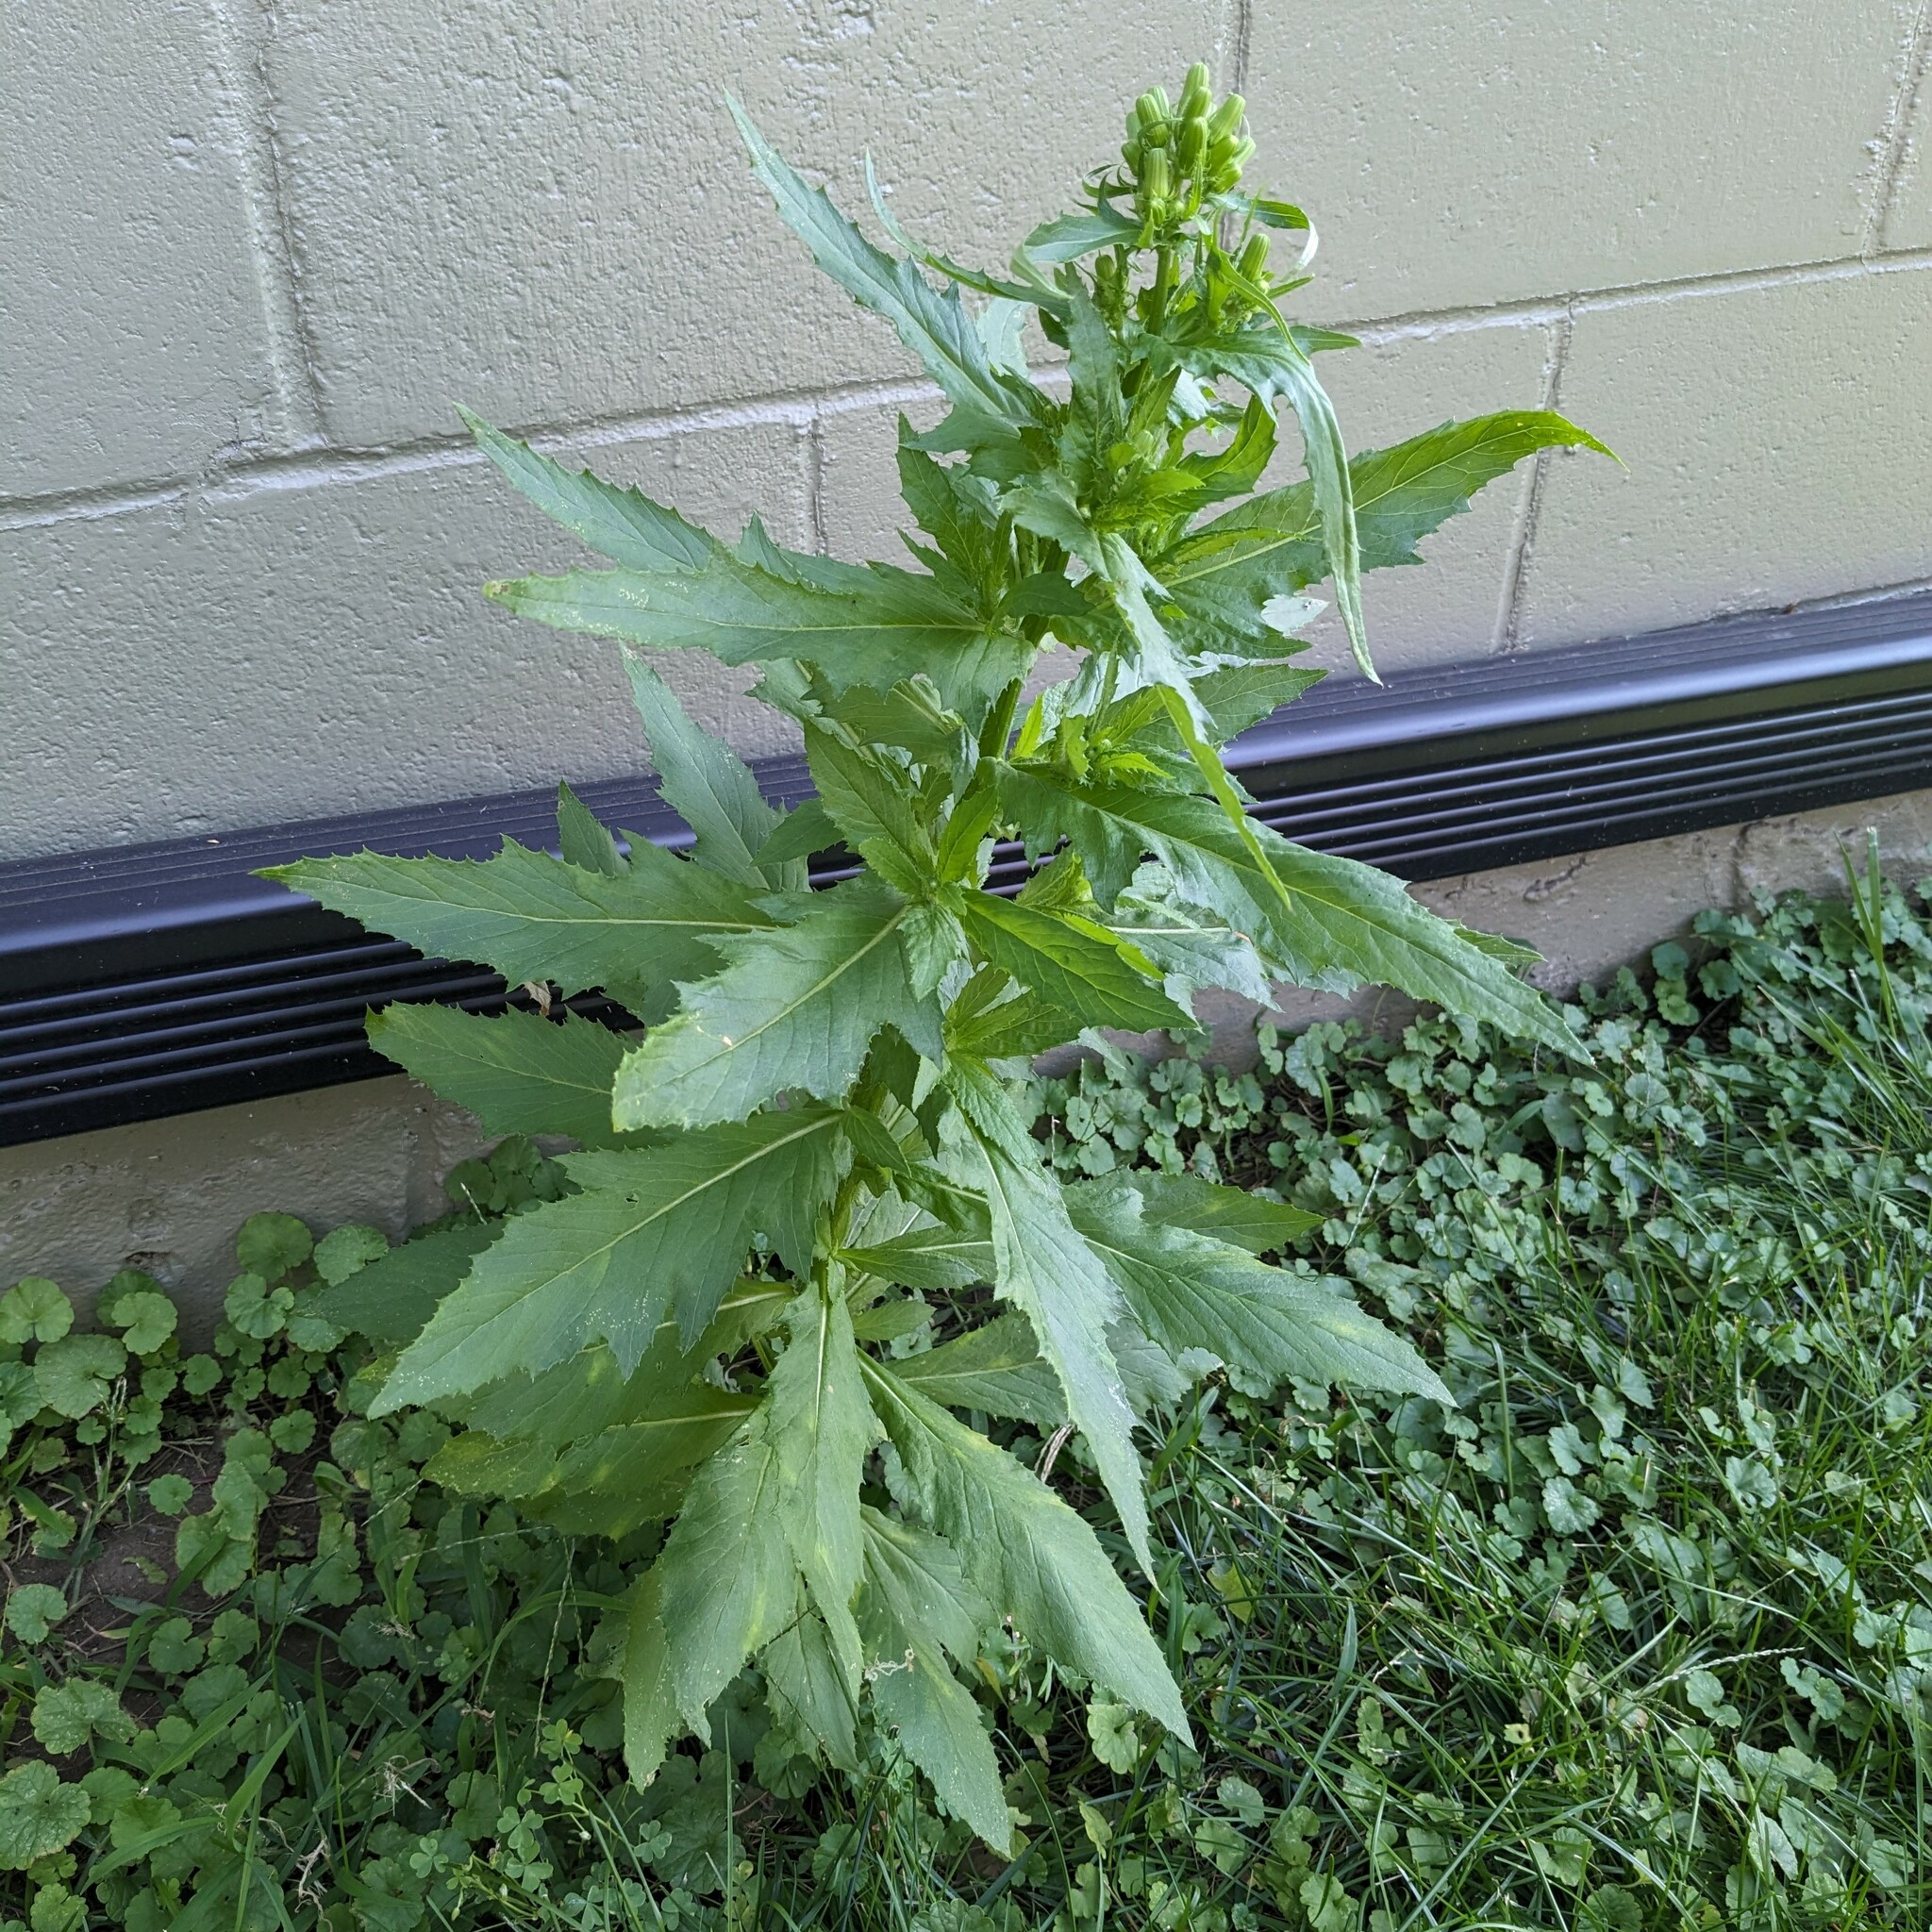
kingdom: Plantae
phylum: Tracheophyta
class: Magnoliopsida
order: Asterales
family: Asteraceae
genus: Erechtites
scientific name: Erechtites hieraciifolius
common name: American burnweed
